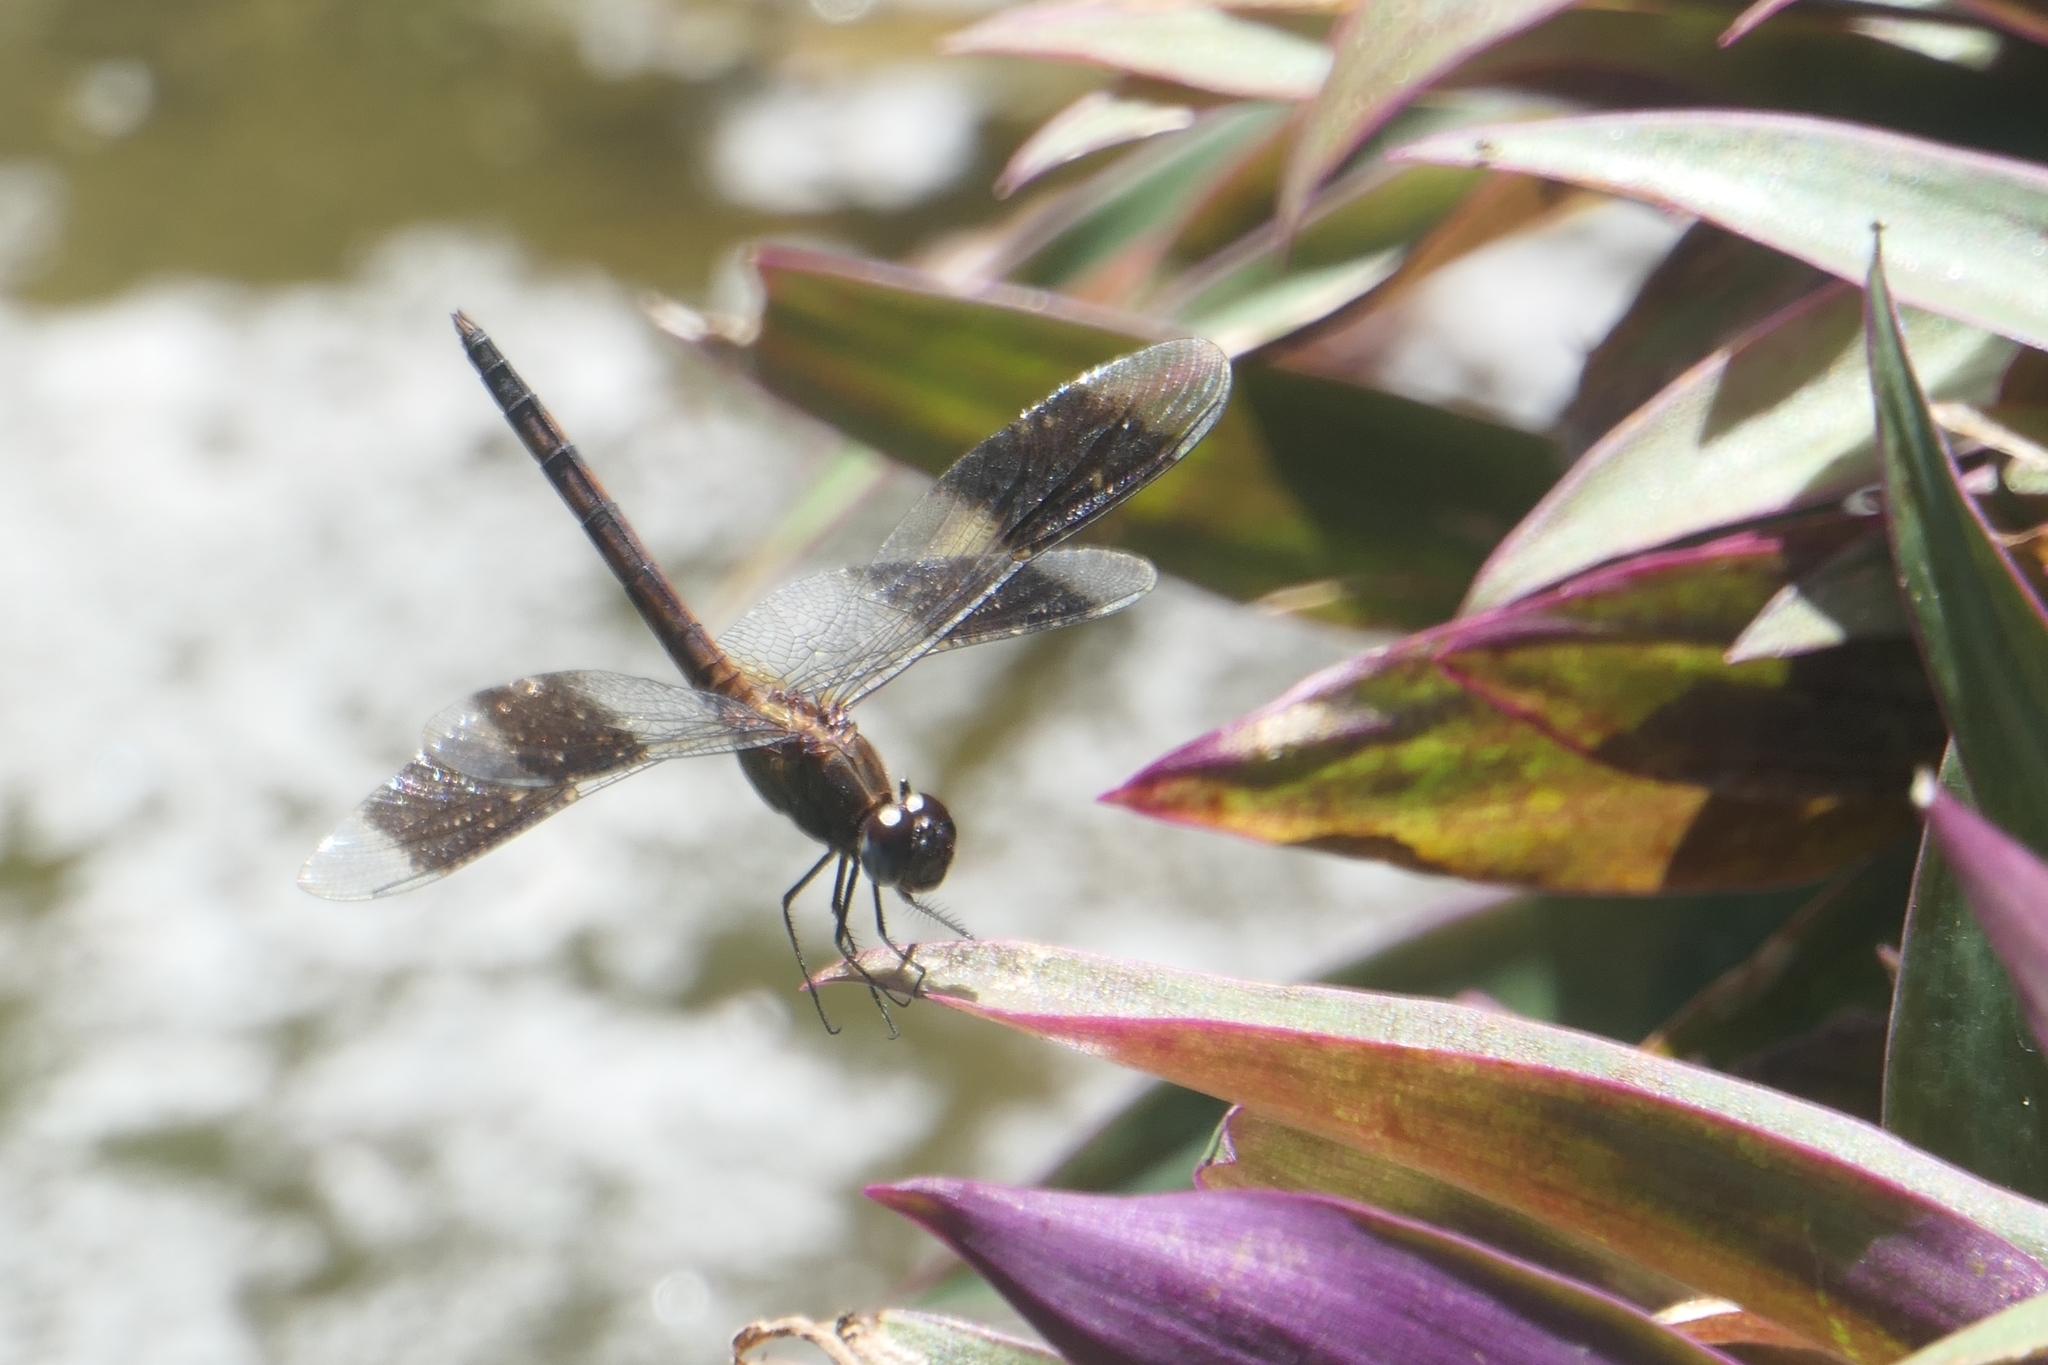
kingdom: Animalia
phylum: Arthropoda
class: Insecta
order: Odonata
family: Libellulidae
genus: Erythrodiplax
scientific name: Erythrodiplax umbrata
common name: Band-winged dragonlet
